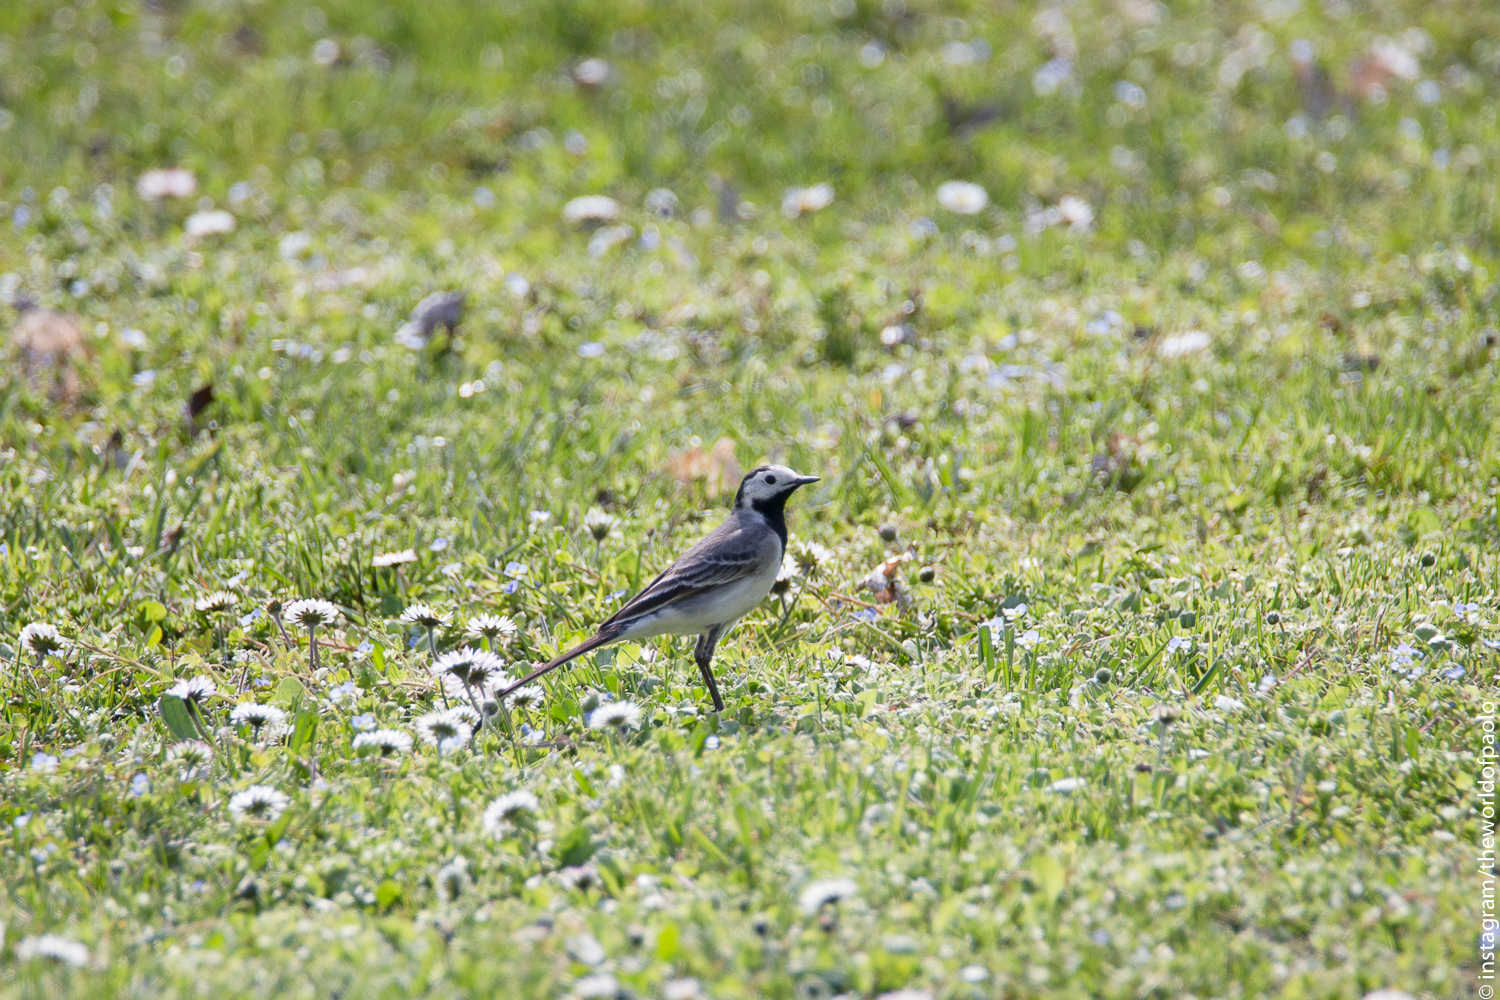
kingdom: Animalia
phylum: Chordata
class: Aves
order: Passeriformes
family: Motacillidae
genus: Motacilla
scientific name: Motacilla alba
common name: White wagtail
